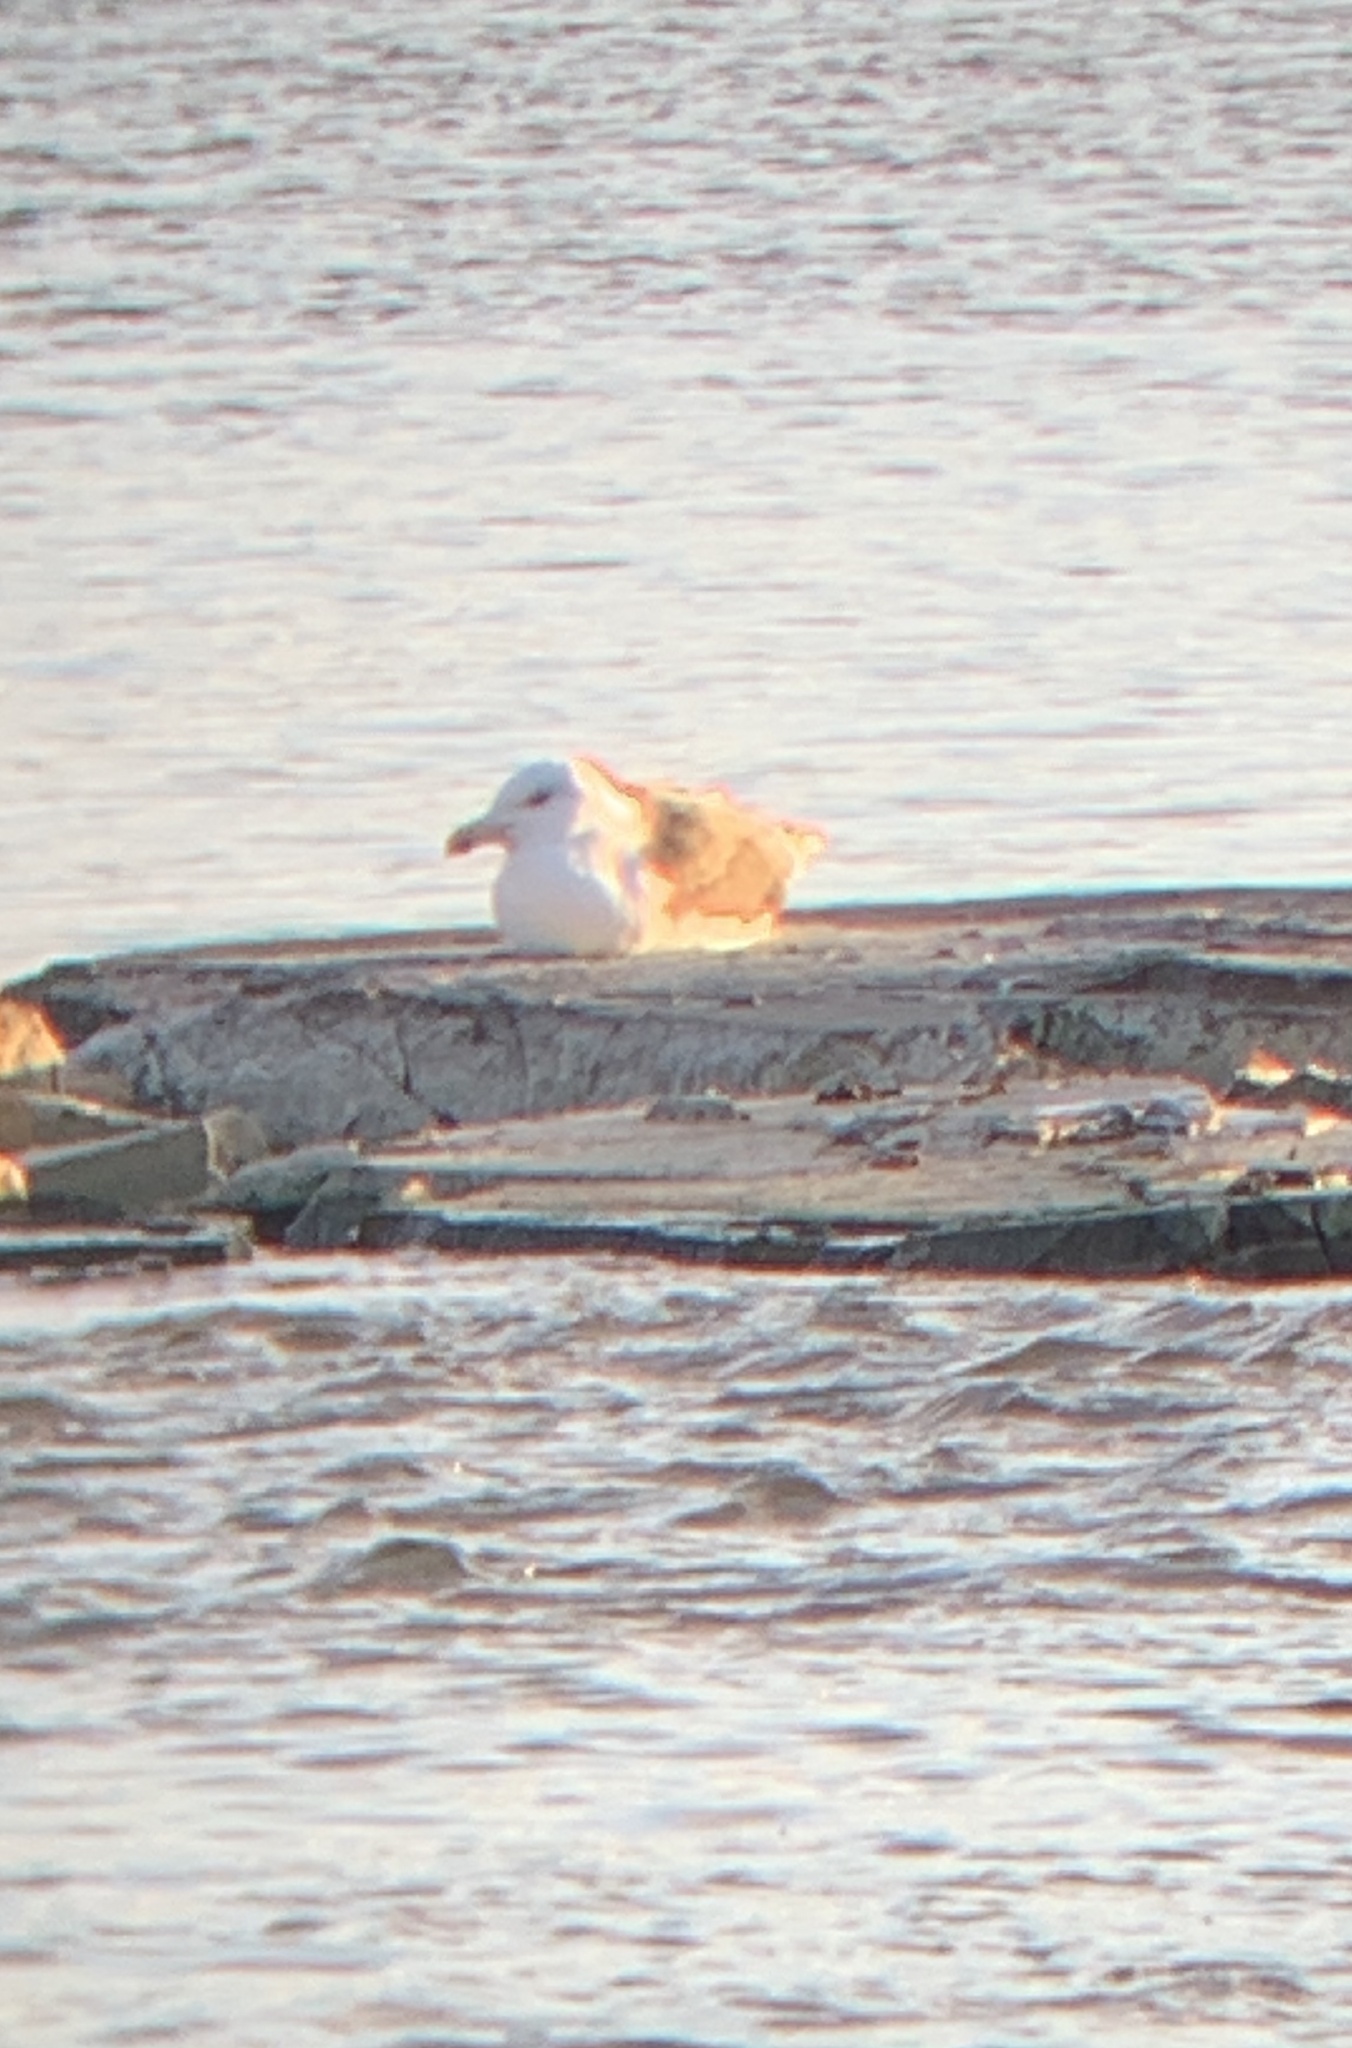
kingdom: Animalia
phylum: Chordata
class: Aves
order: Charadriiformes
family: Laridae
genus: Larus
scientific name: Larus marinus
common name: Great black-backed gull
